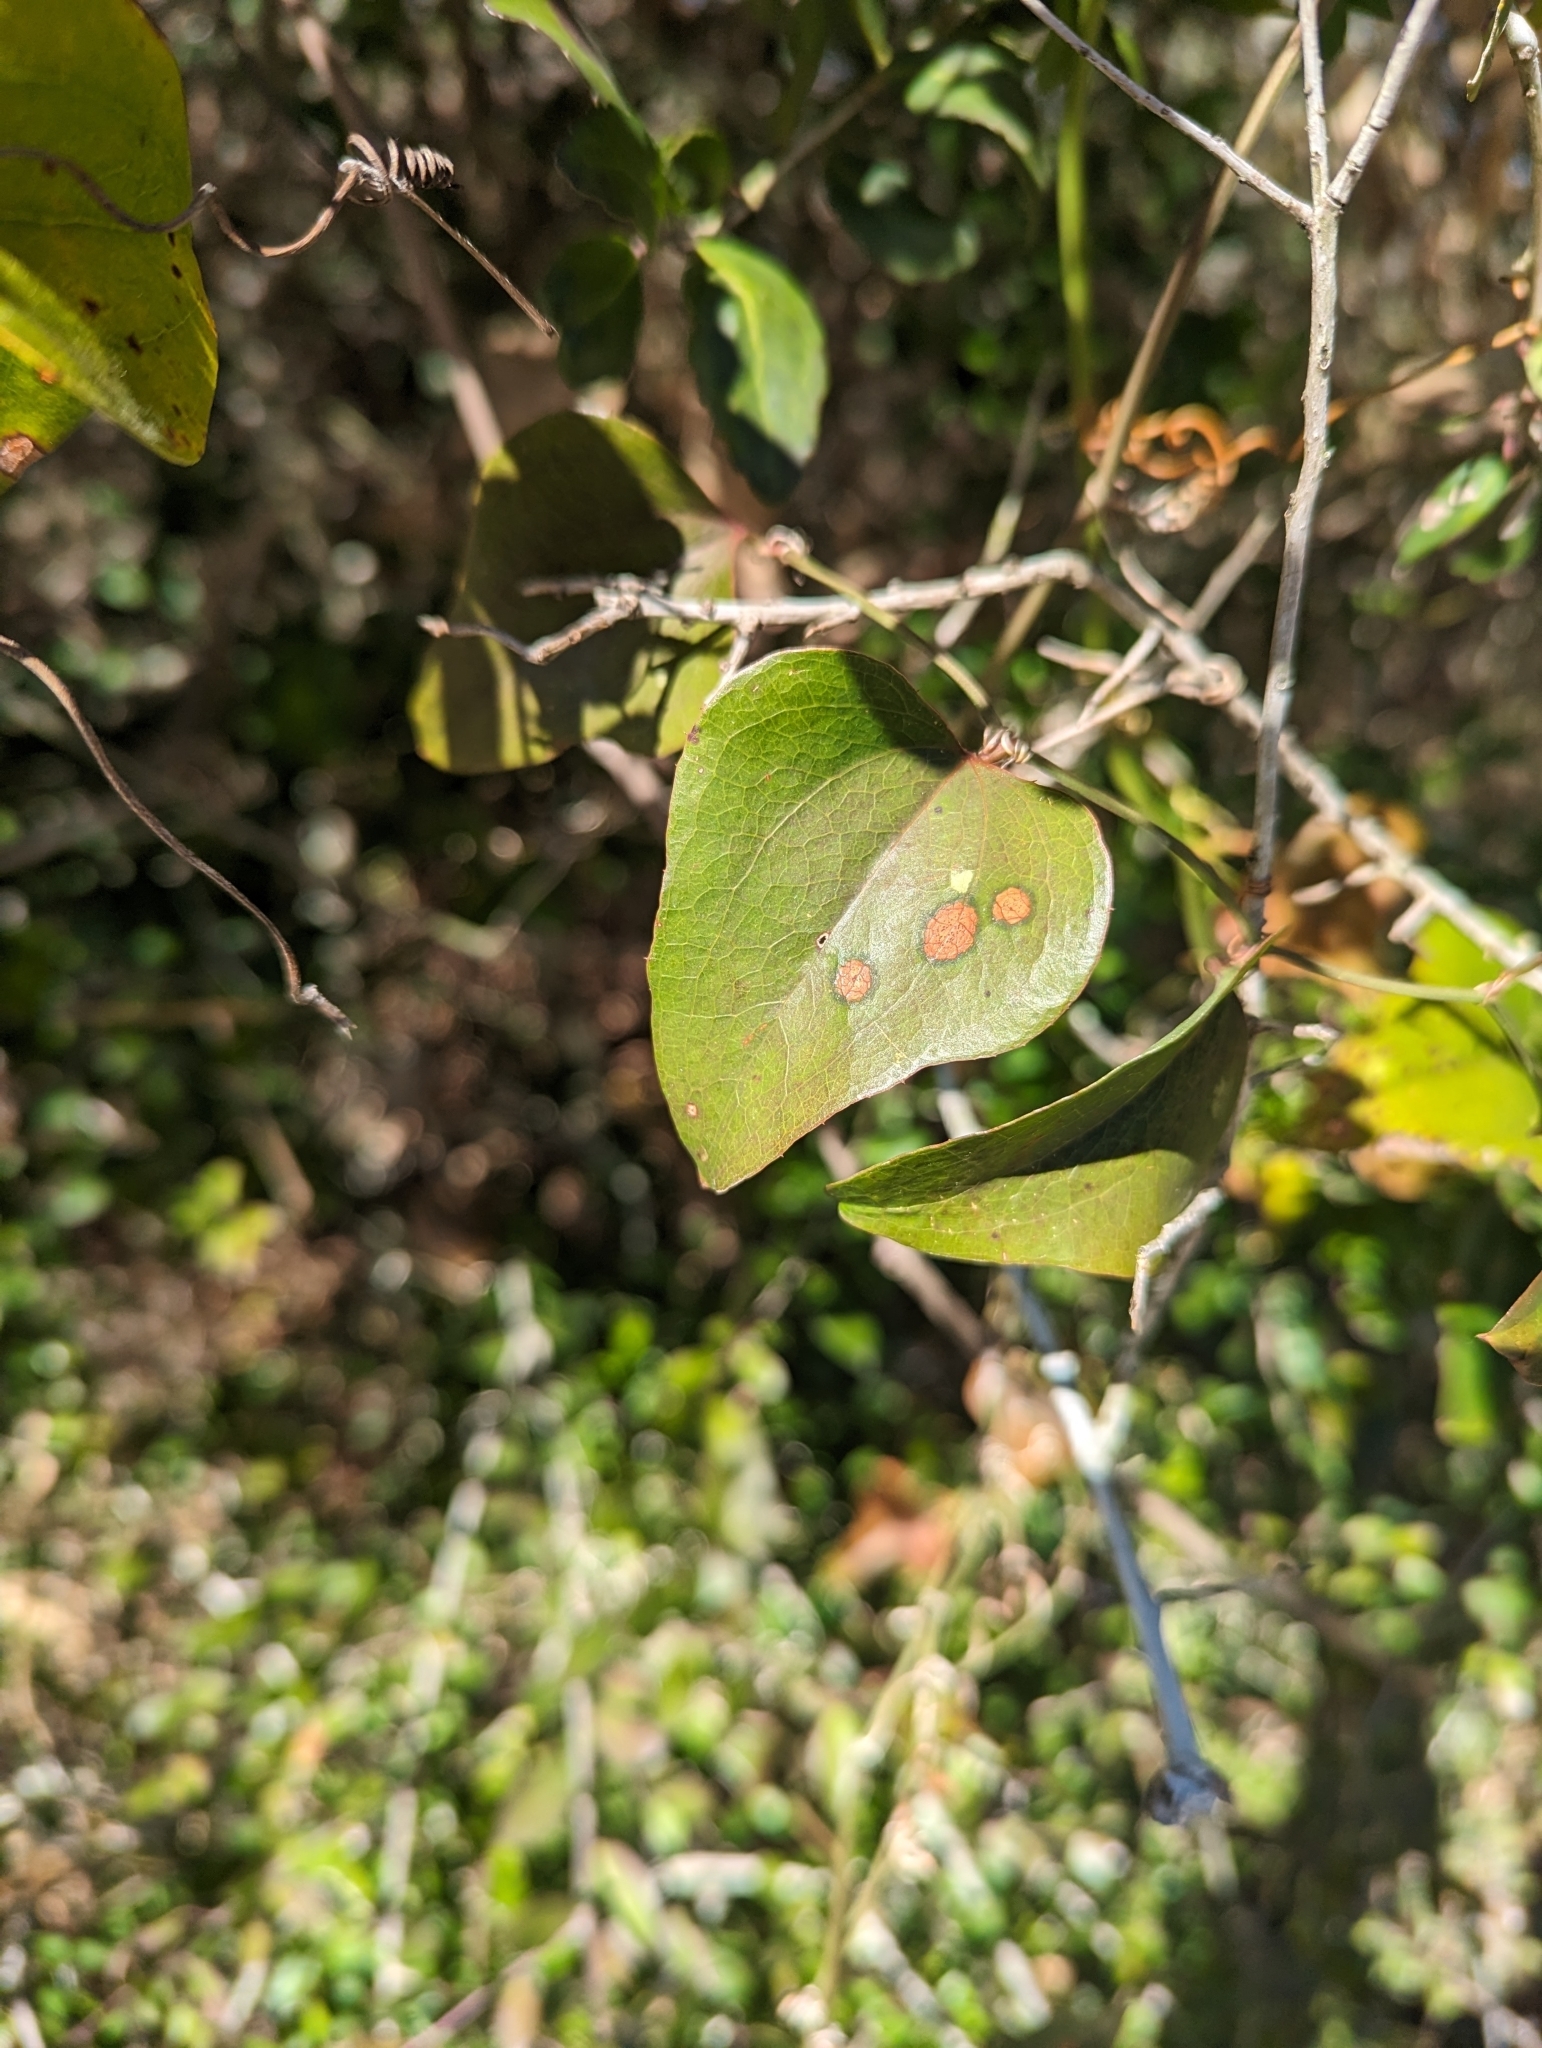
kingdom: Plantae
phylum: Tracheophyta
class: Liliopsida
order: Liliales
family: Smilacaceae
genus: Smilax
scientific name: Smilax bona-nox
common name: Catbrier
